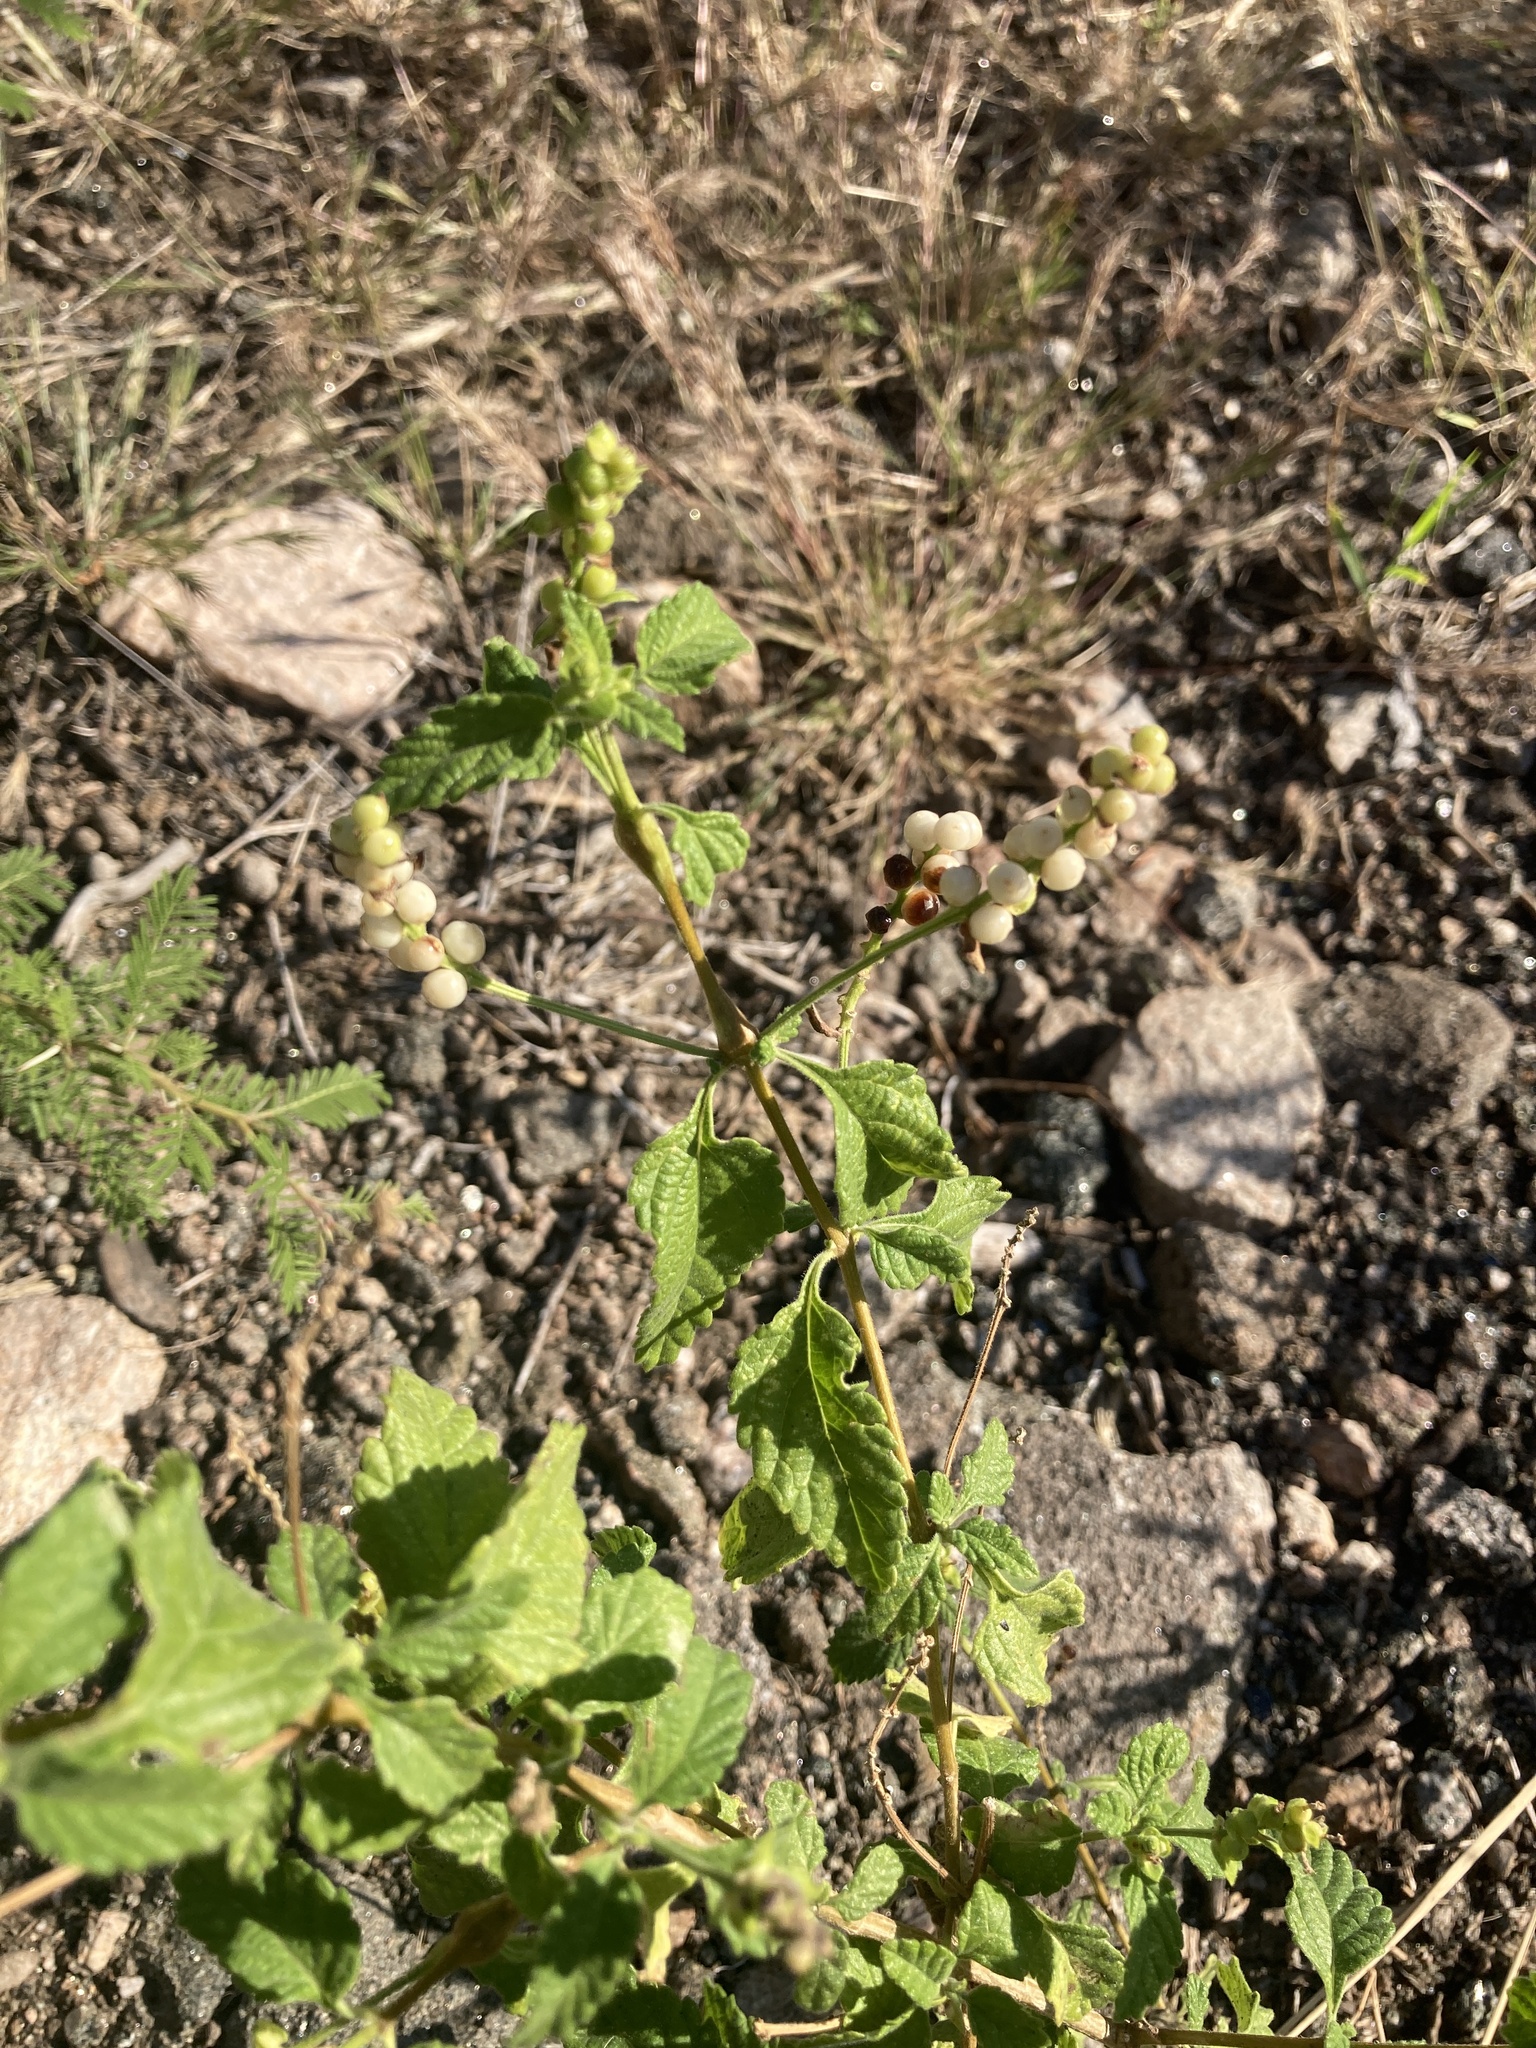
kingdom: Plantae
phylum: Tracheophyta
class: Magnoliopsida
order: Lamiales
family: Verbenaceae
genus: Lantana
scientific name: Lantana grisebachii
